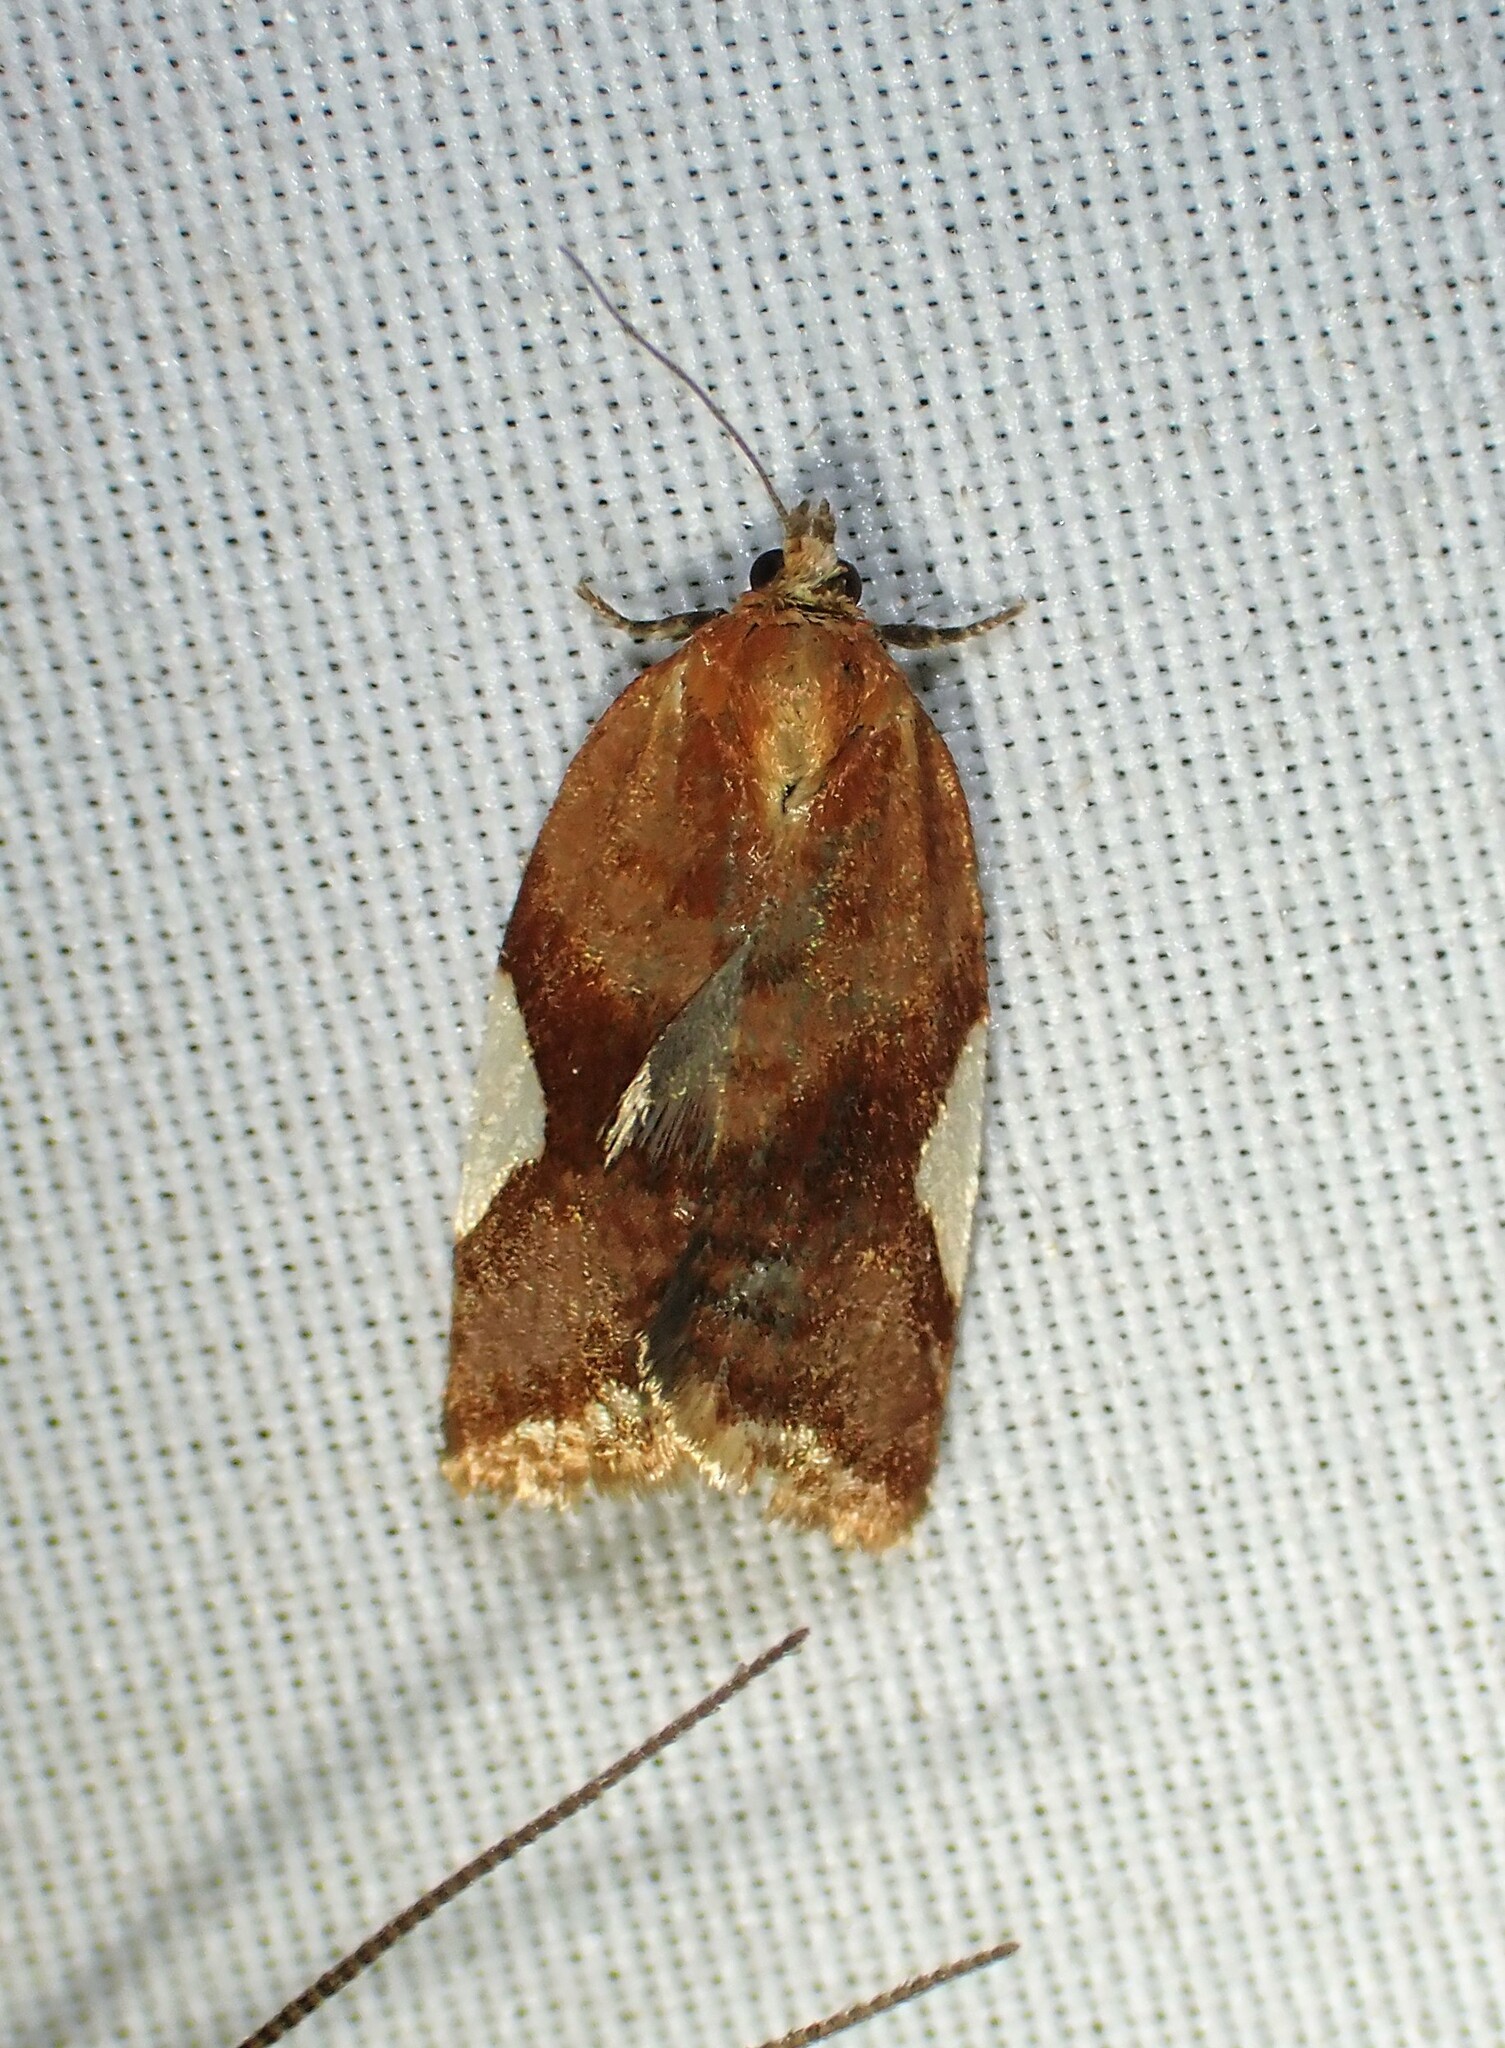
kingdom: Animalia
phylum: Arthropoda
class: Insecta
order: Lepidoptera
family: Tortricidae
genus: Clepsis
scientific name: Clepsis persicana
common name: White triangle tortrix
